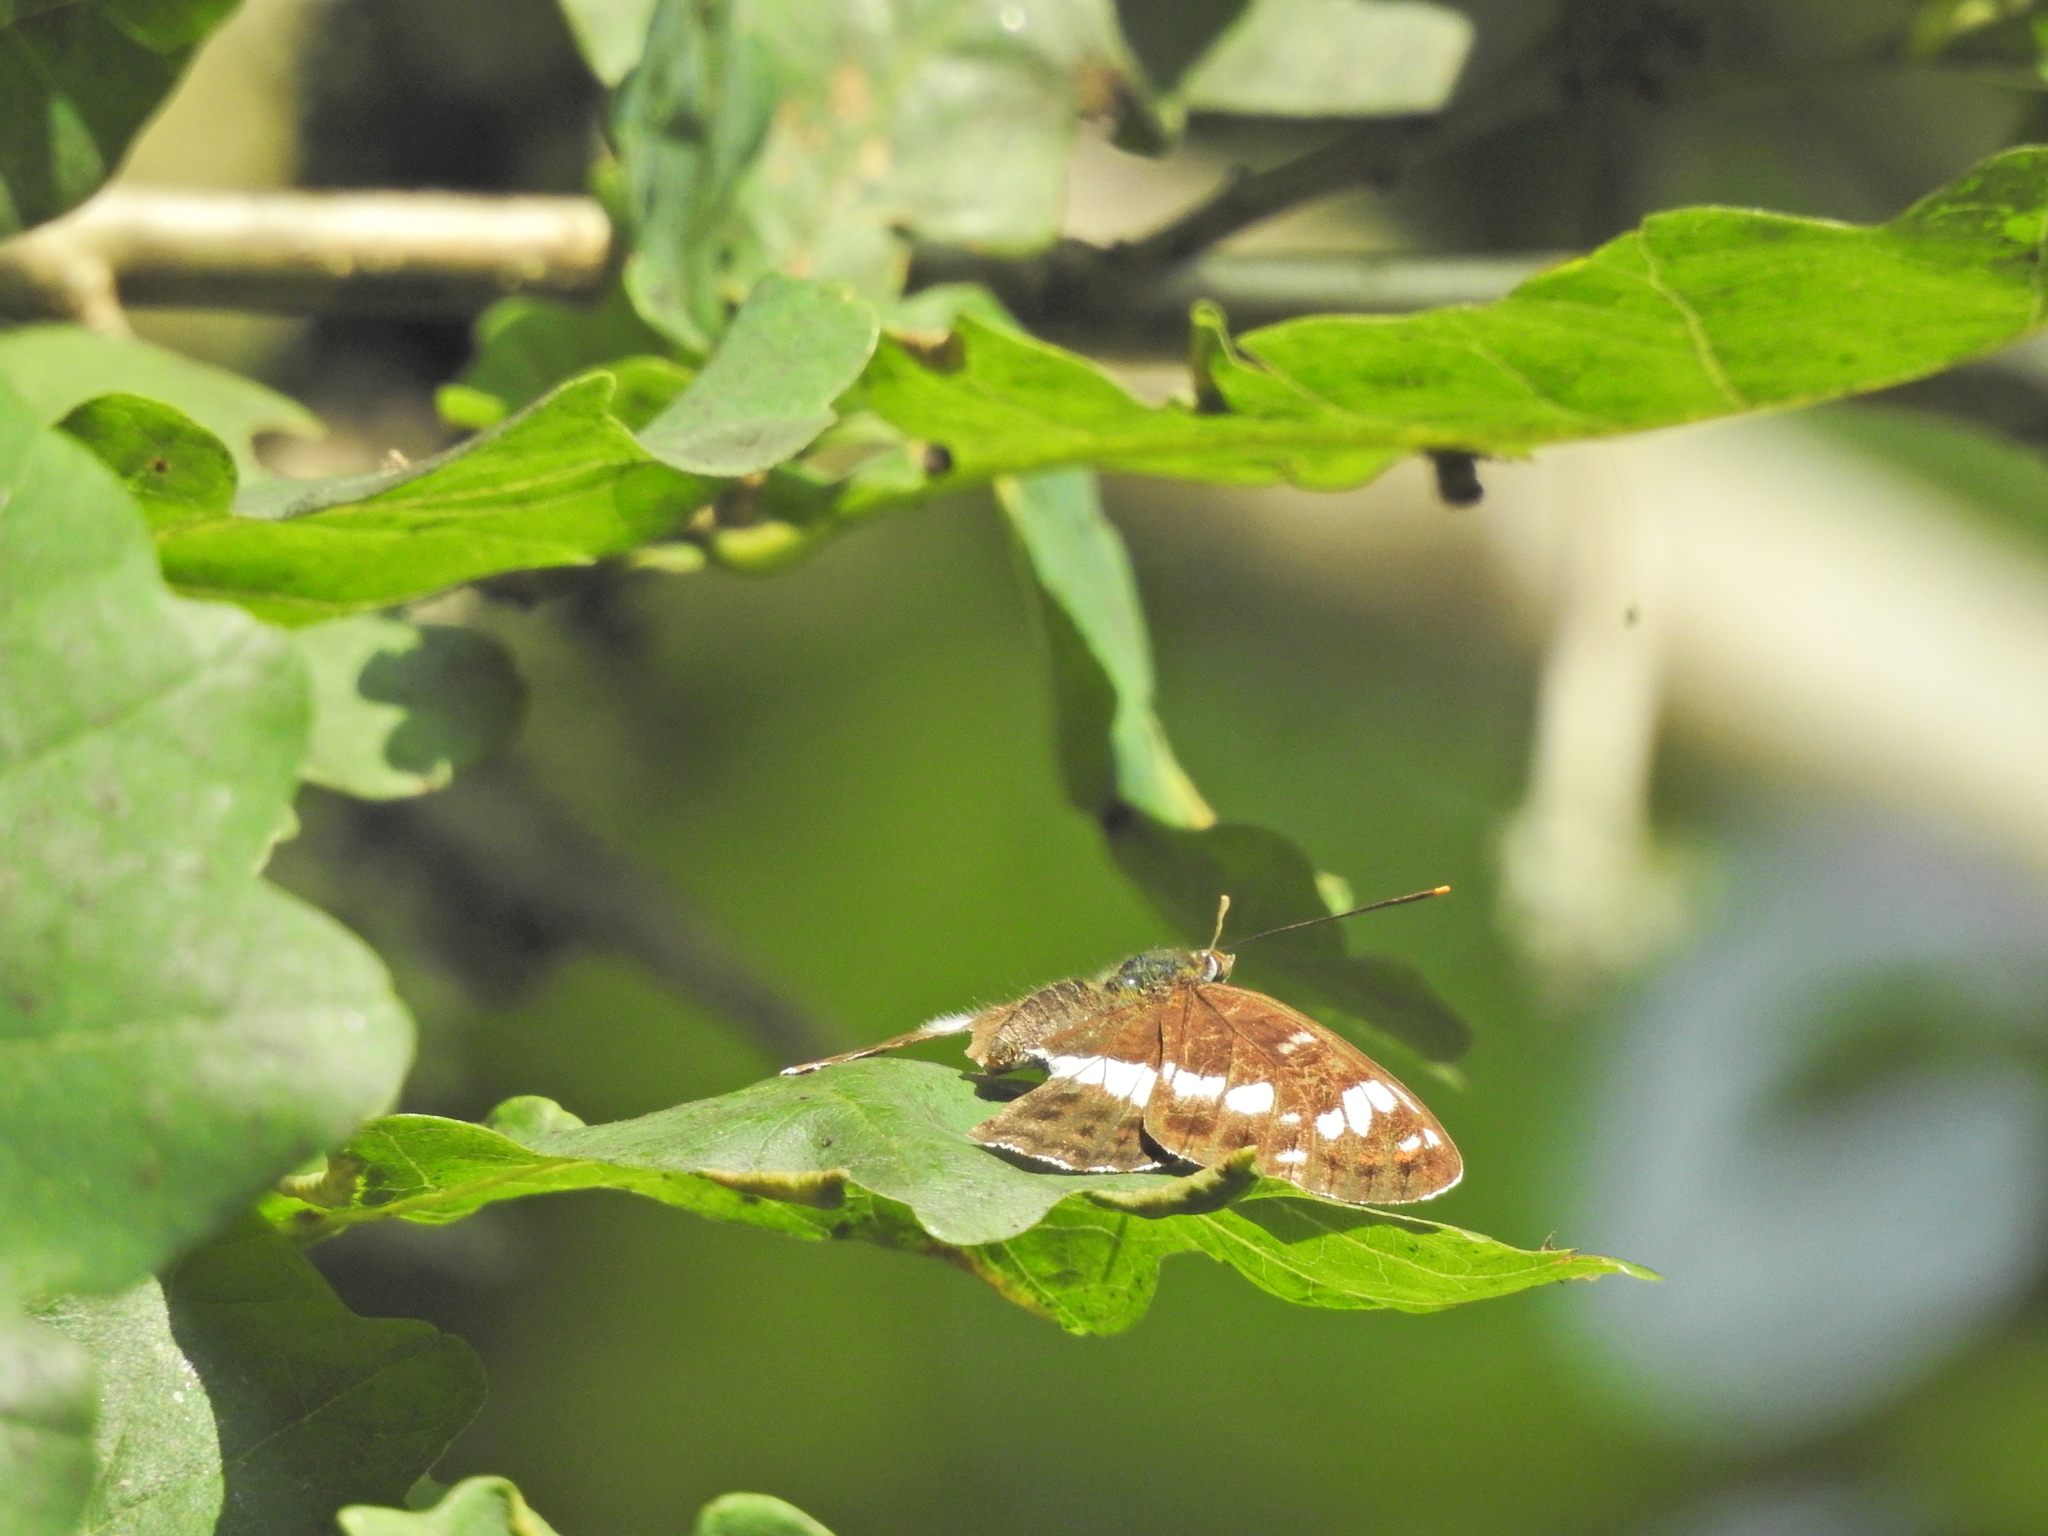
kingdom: Animalia
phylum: Arthropoda
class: Insecta
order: Lepidoptera
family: Nymphalidae
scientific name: Nymphalidae
